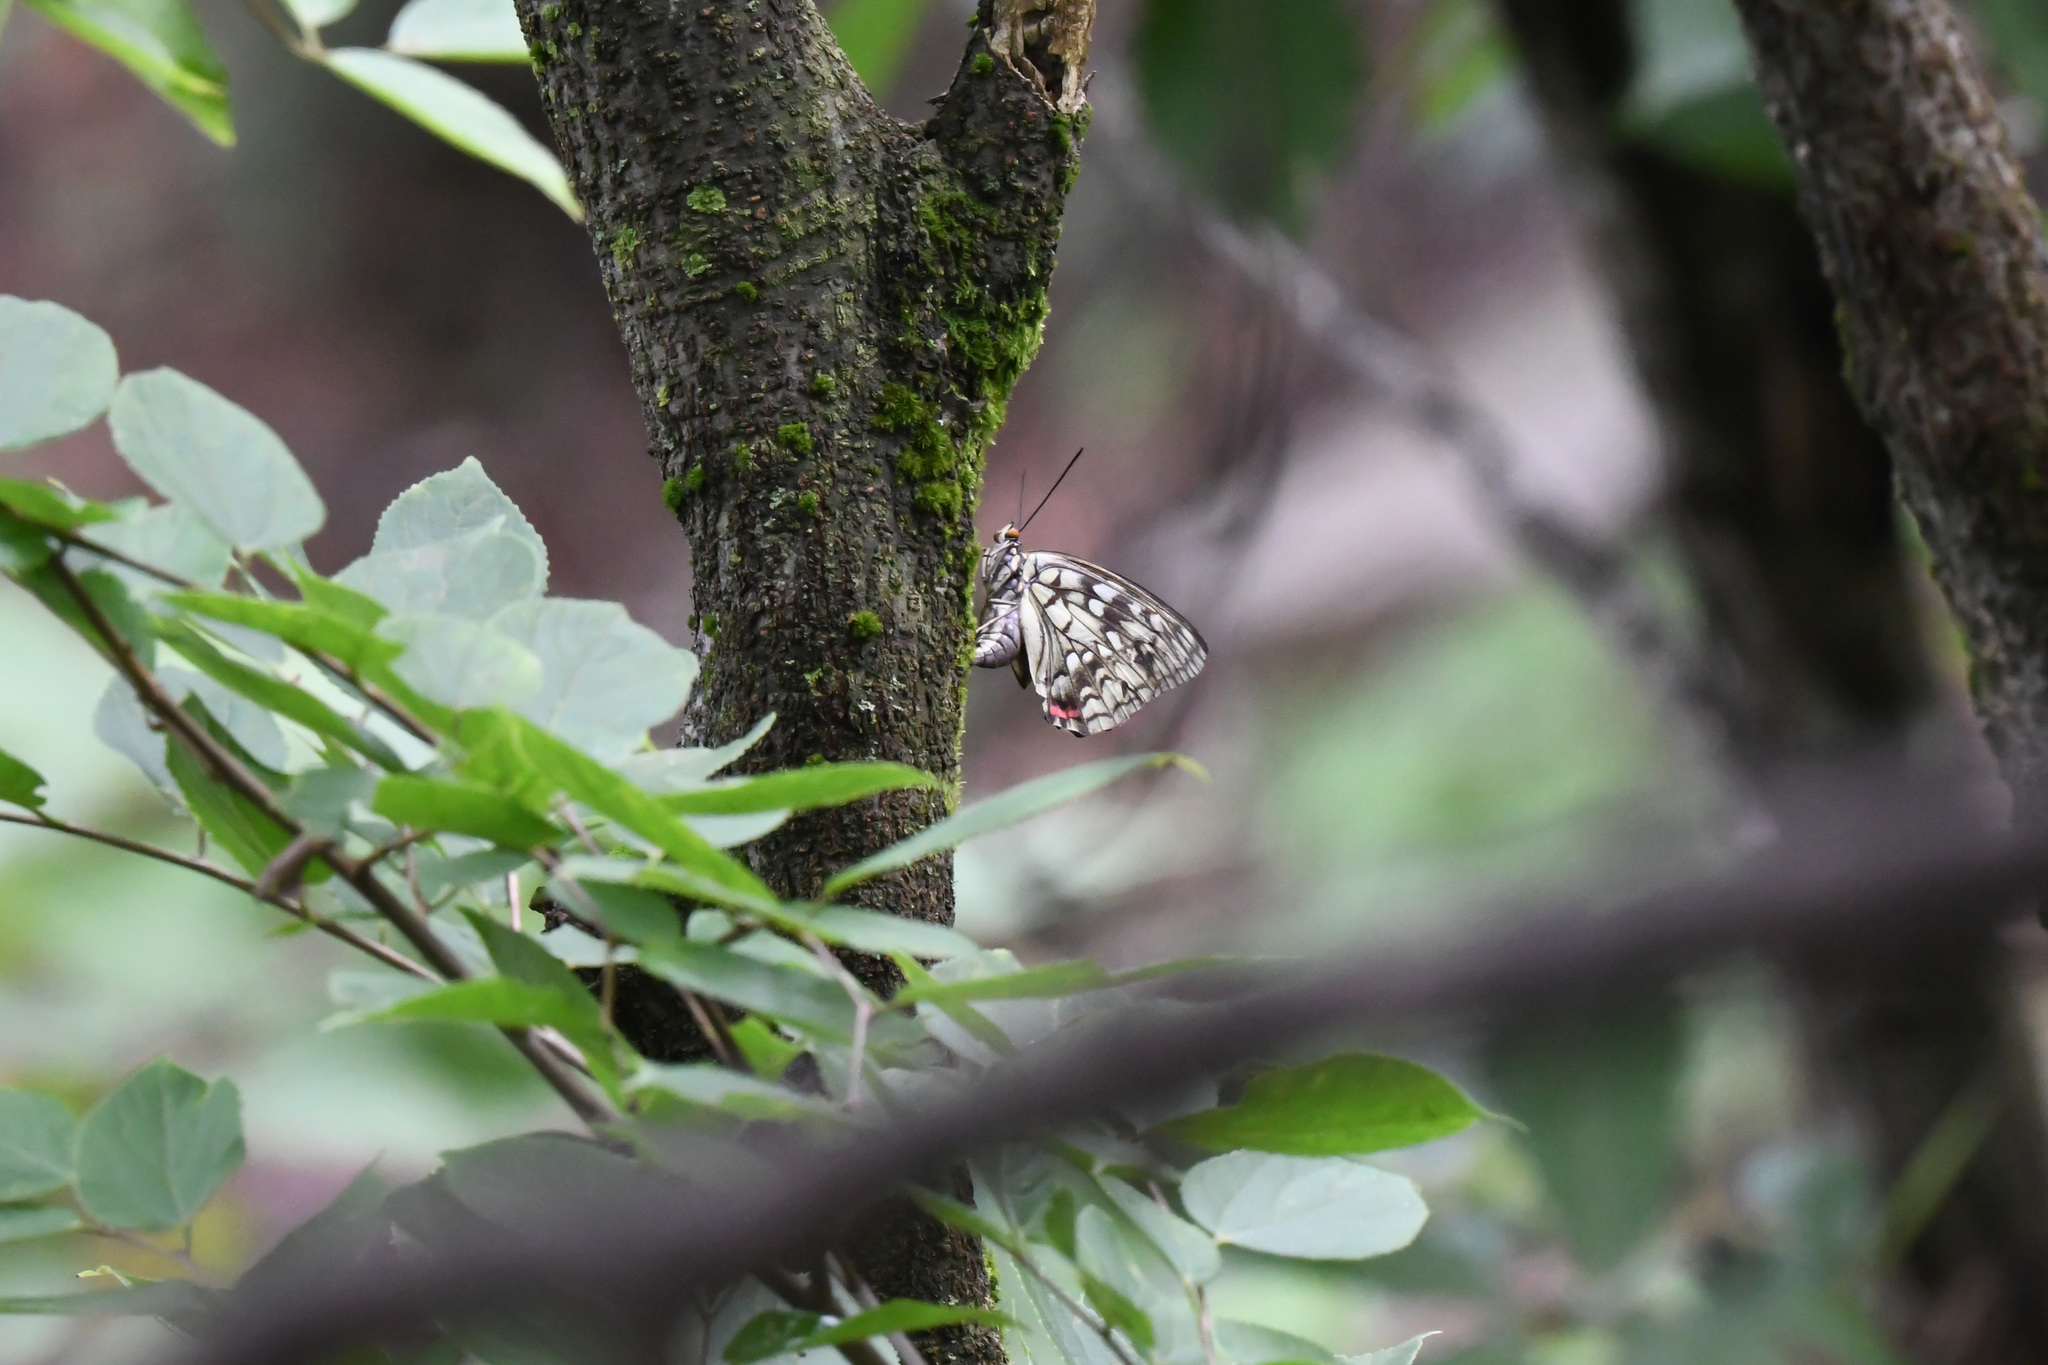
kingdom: Animalia
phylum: Arthropoda
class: Insecta
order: Lepidoptera
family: Nymphalidae
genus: Sasakia
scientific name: Sasakia charonda
